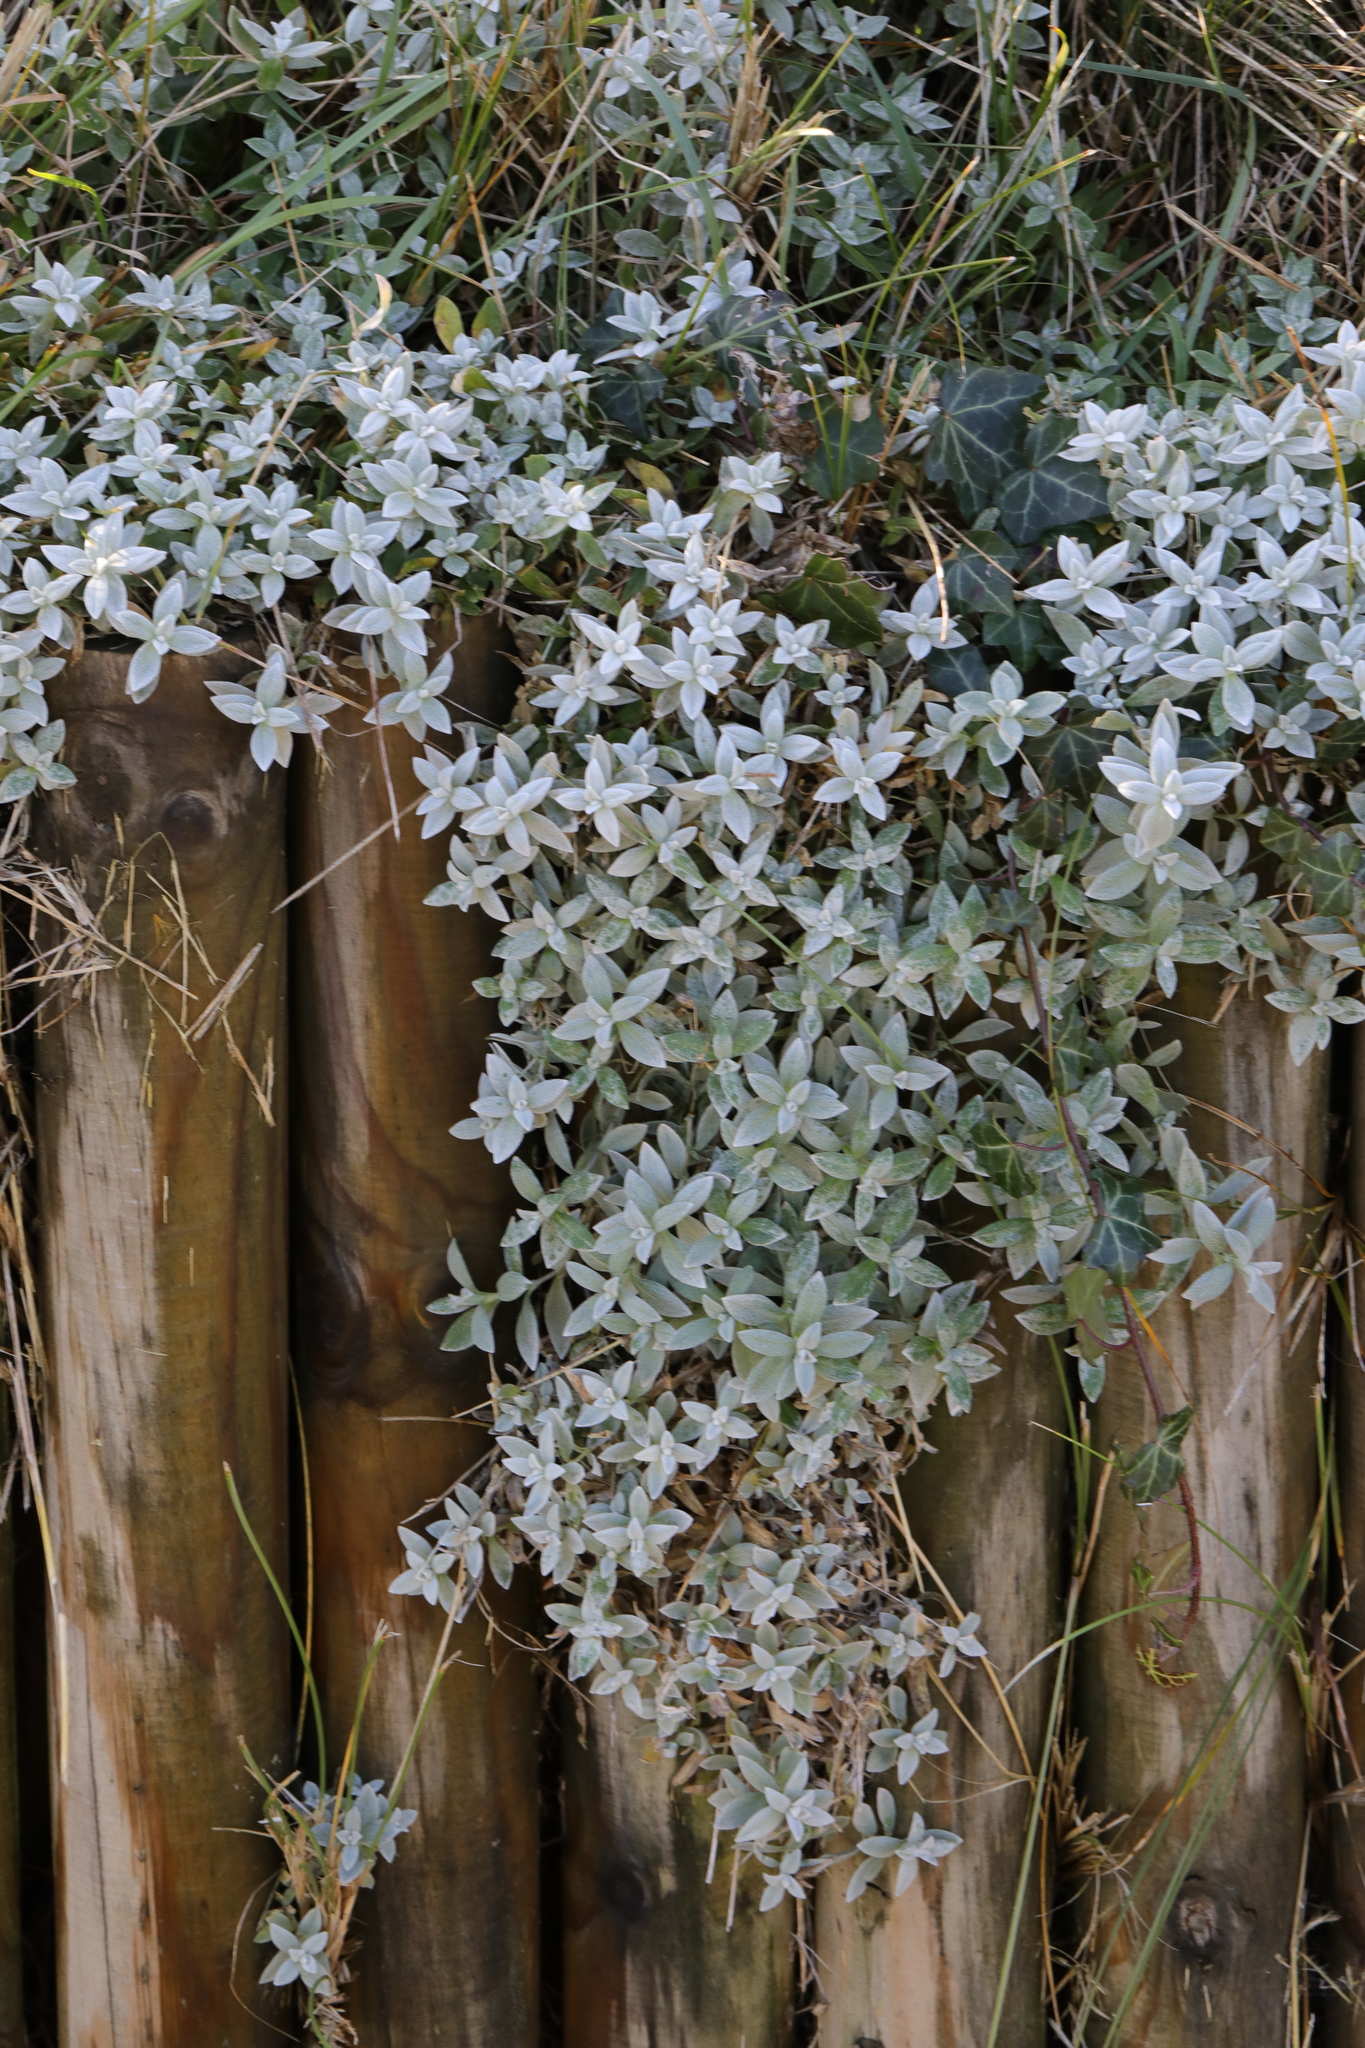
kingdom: Plantae
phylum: Tracheophyta
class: Magnoliopsida
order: Caryophyllales
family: Caryophyllaceae
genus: Cerastium
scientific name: Cerastium tomentosum
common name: Snow-in-summer
